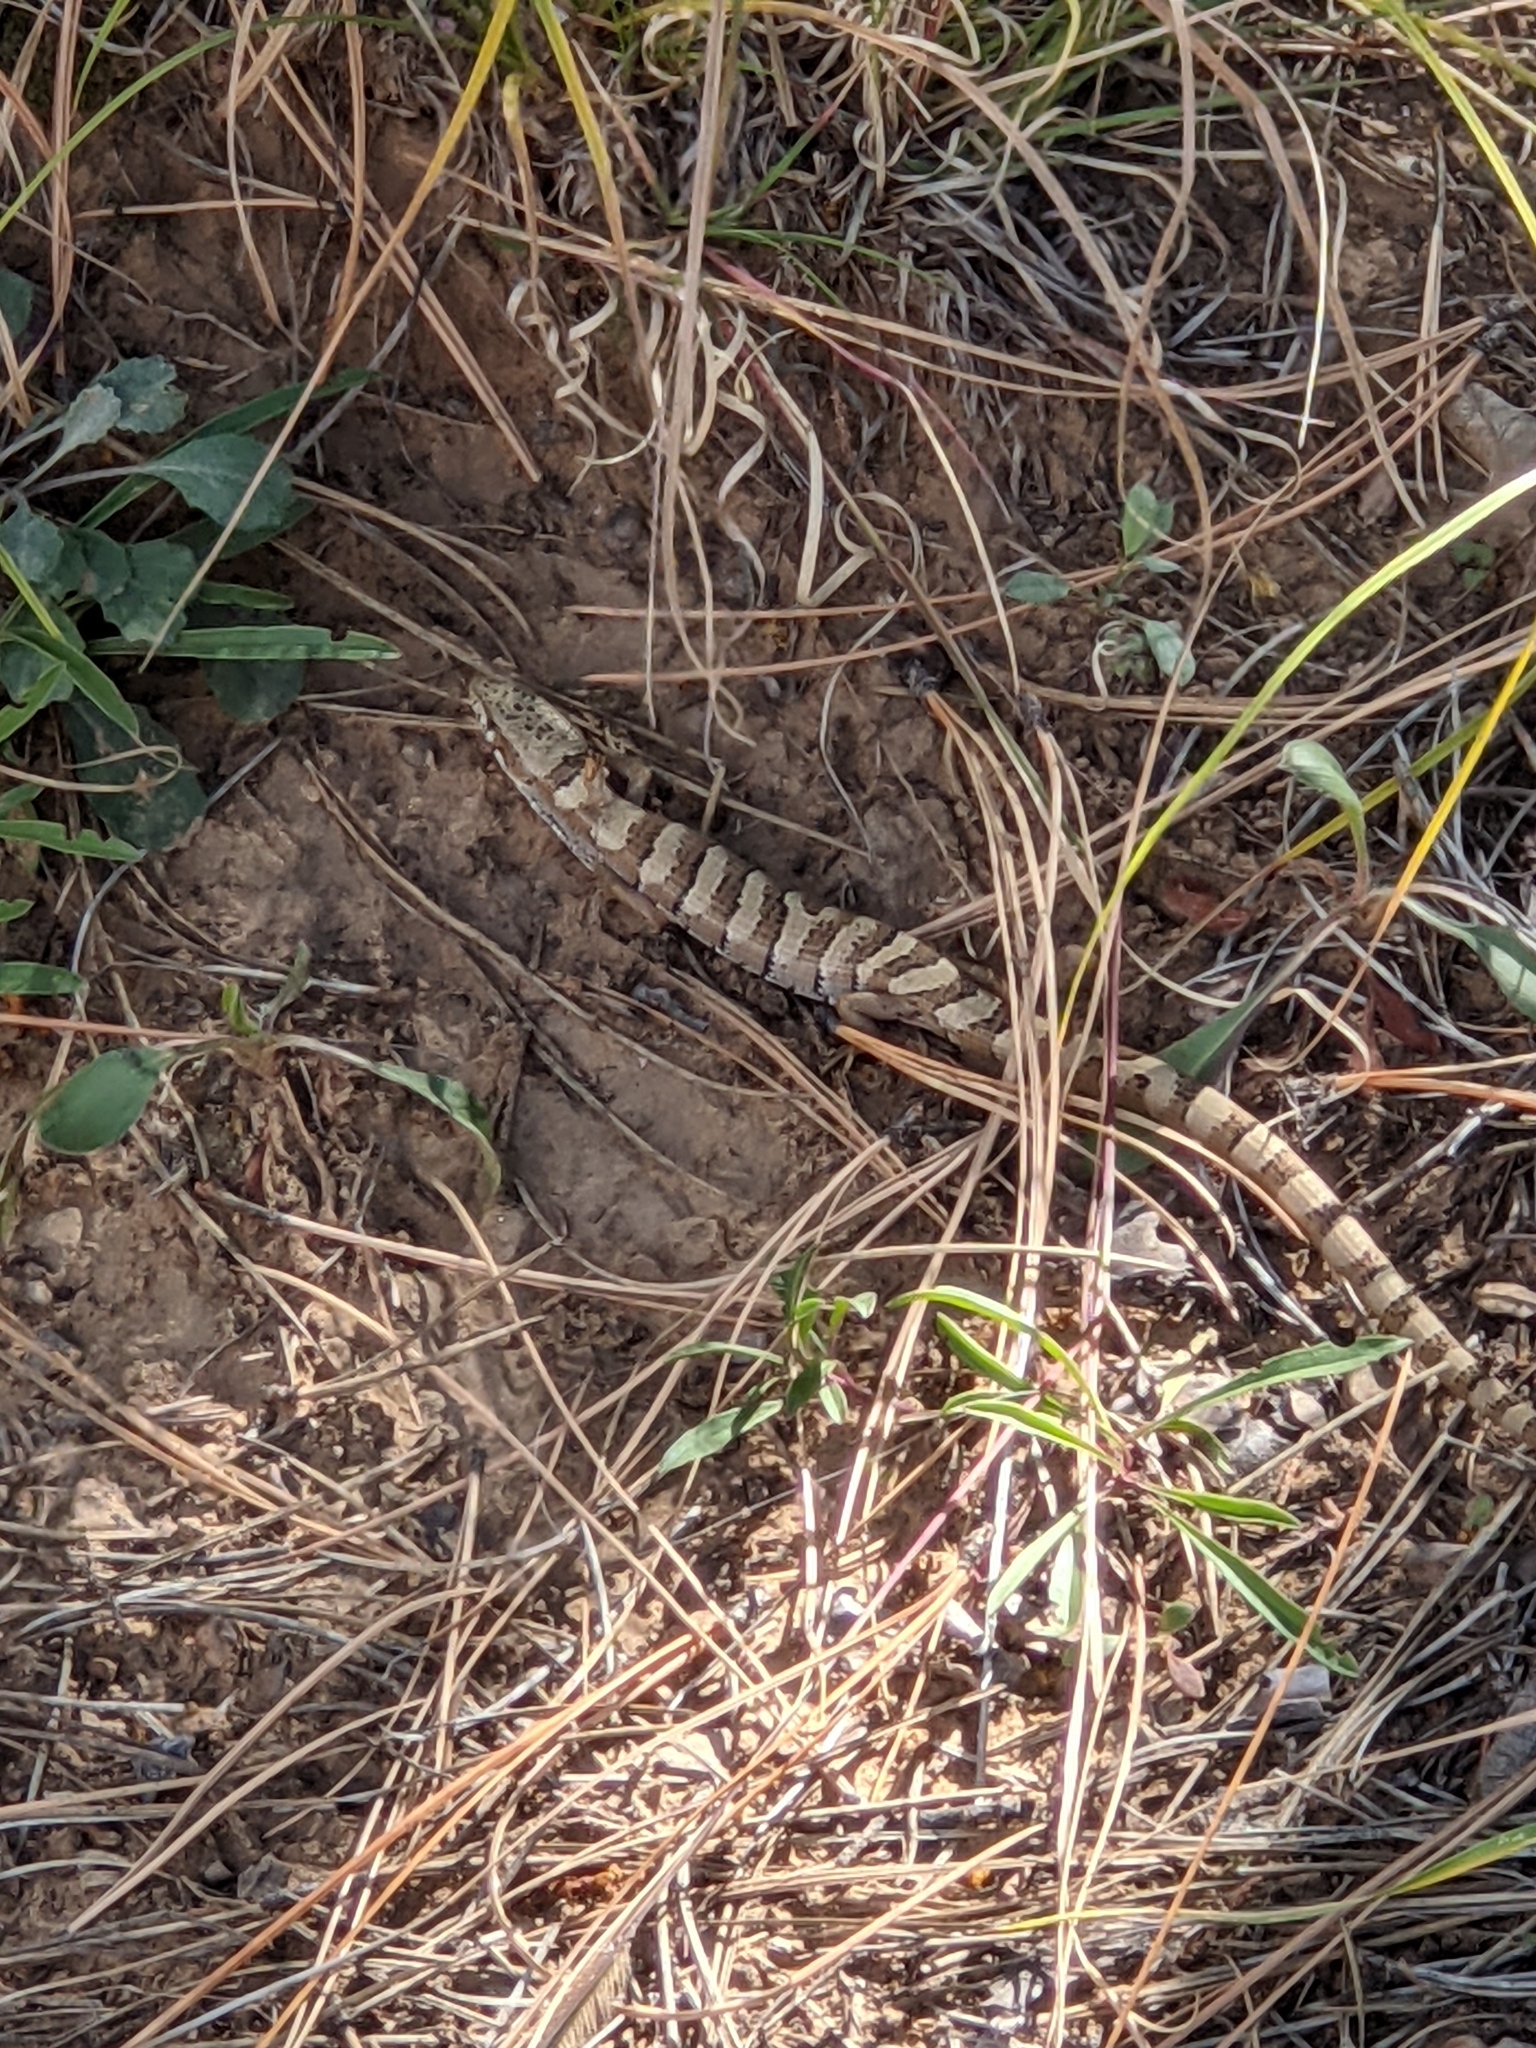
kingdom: Animalia
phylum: Chordata
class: Squamata
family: Anguidae
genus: Elgaria
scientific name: Elgaria kingii
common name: Madrean alligator lizard
